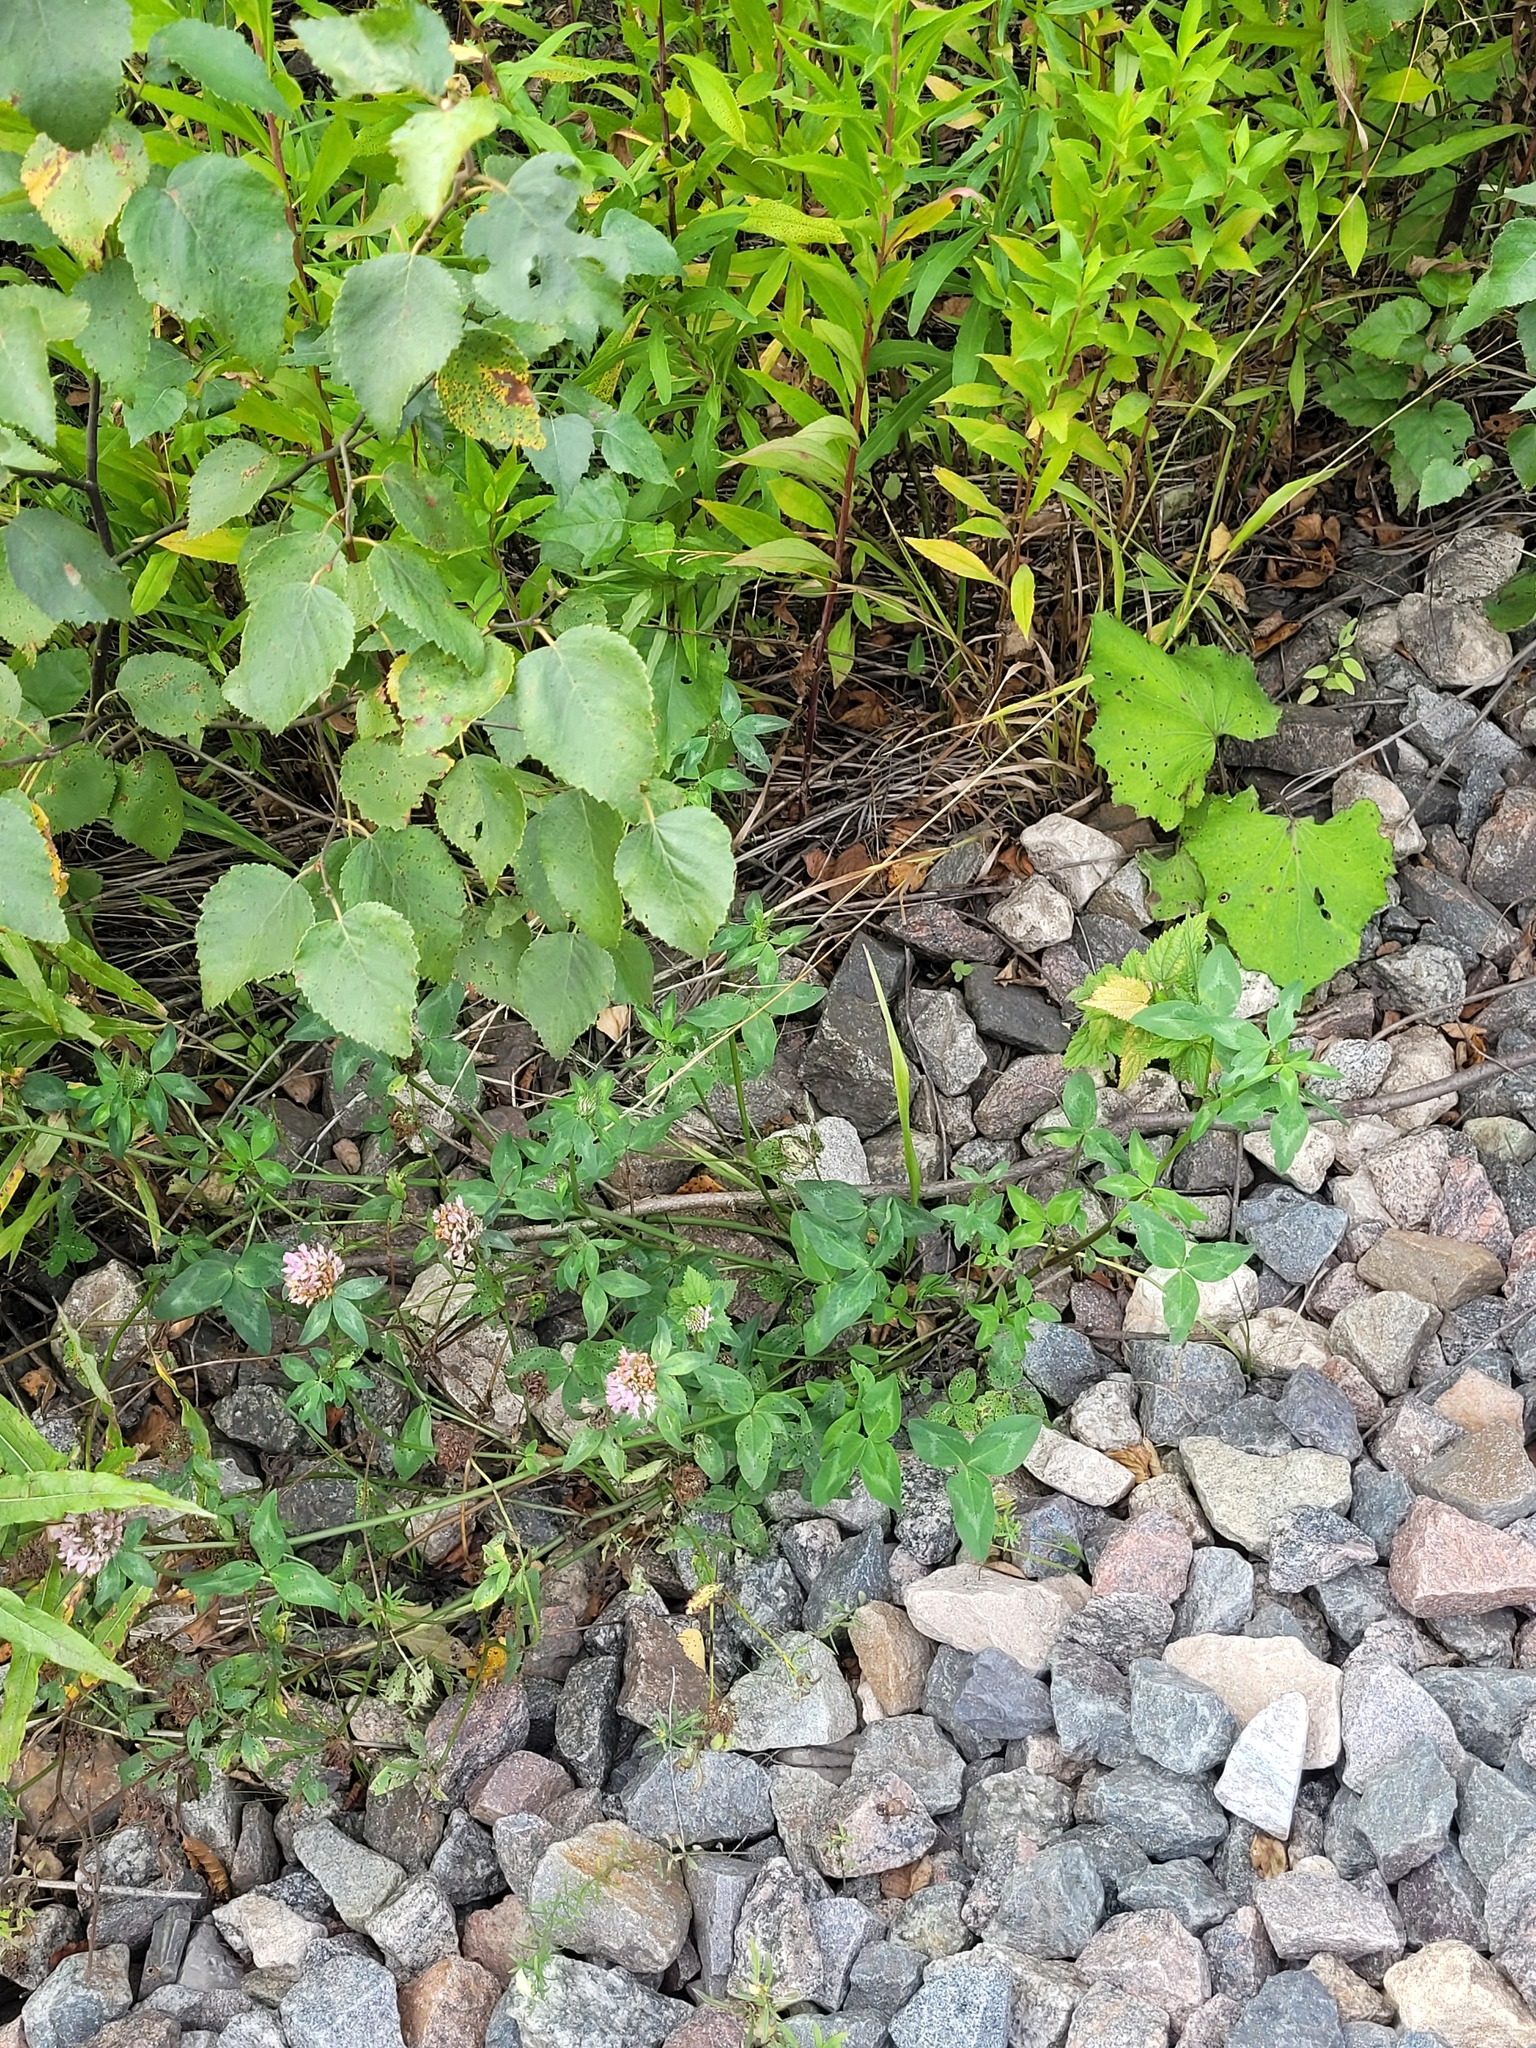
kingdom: Plantae
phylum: Tracheophyta
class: Magnoliopsida
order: Fabales
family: Fabaceae
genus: Trifolium
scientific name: Trifolium pratense
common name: Red clover
